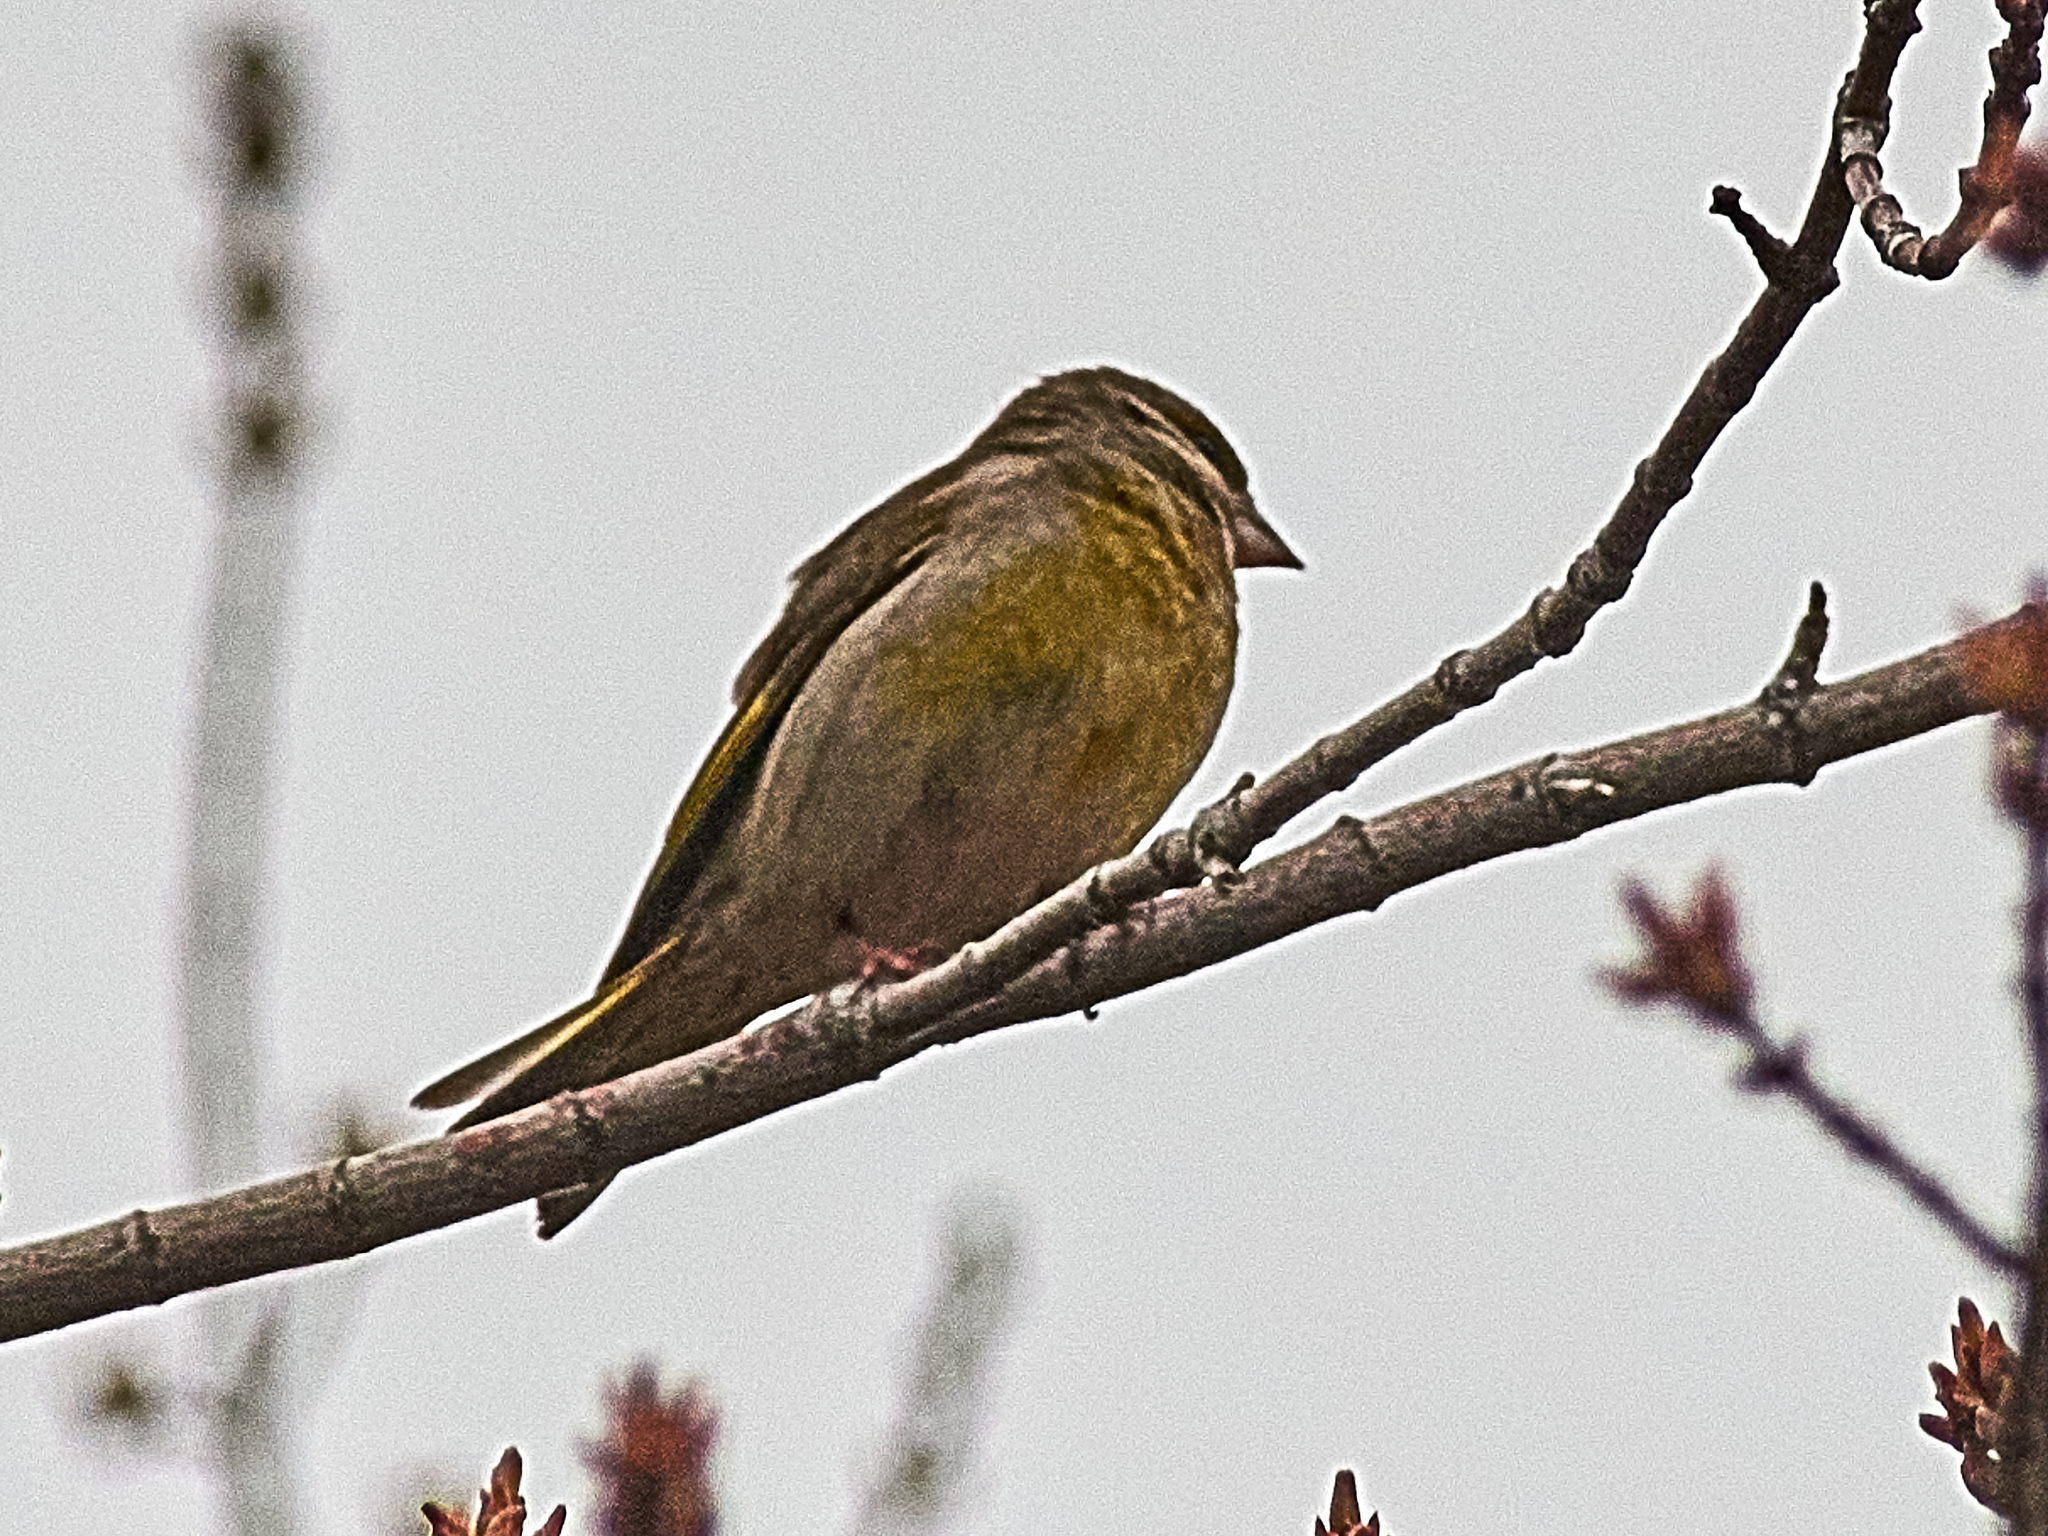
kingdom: Plantae
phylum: Tracheophyta
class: Liliopsida
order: Poales
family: Poaceae
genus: Chloris
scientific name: Chloris chloris
